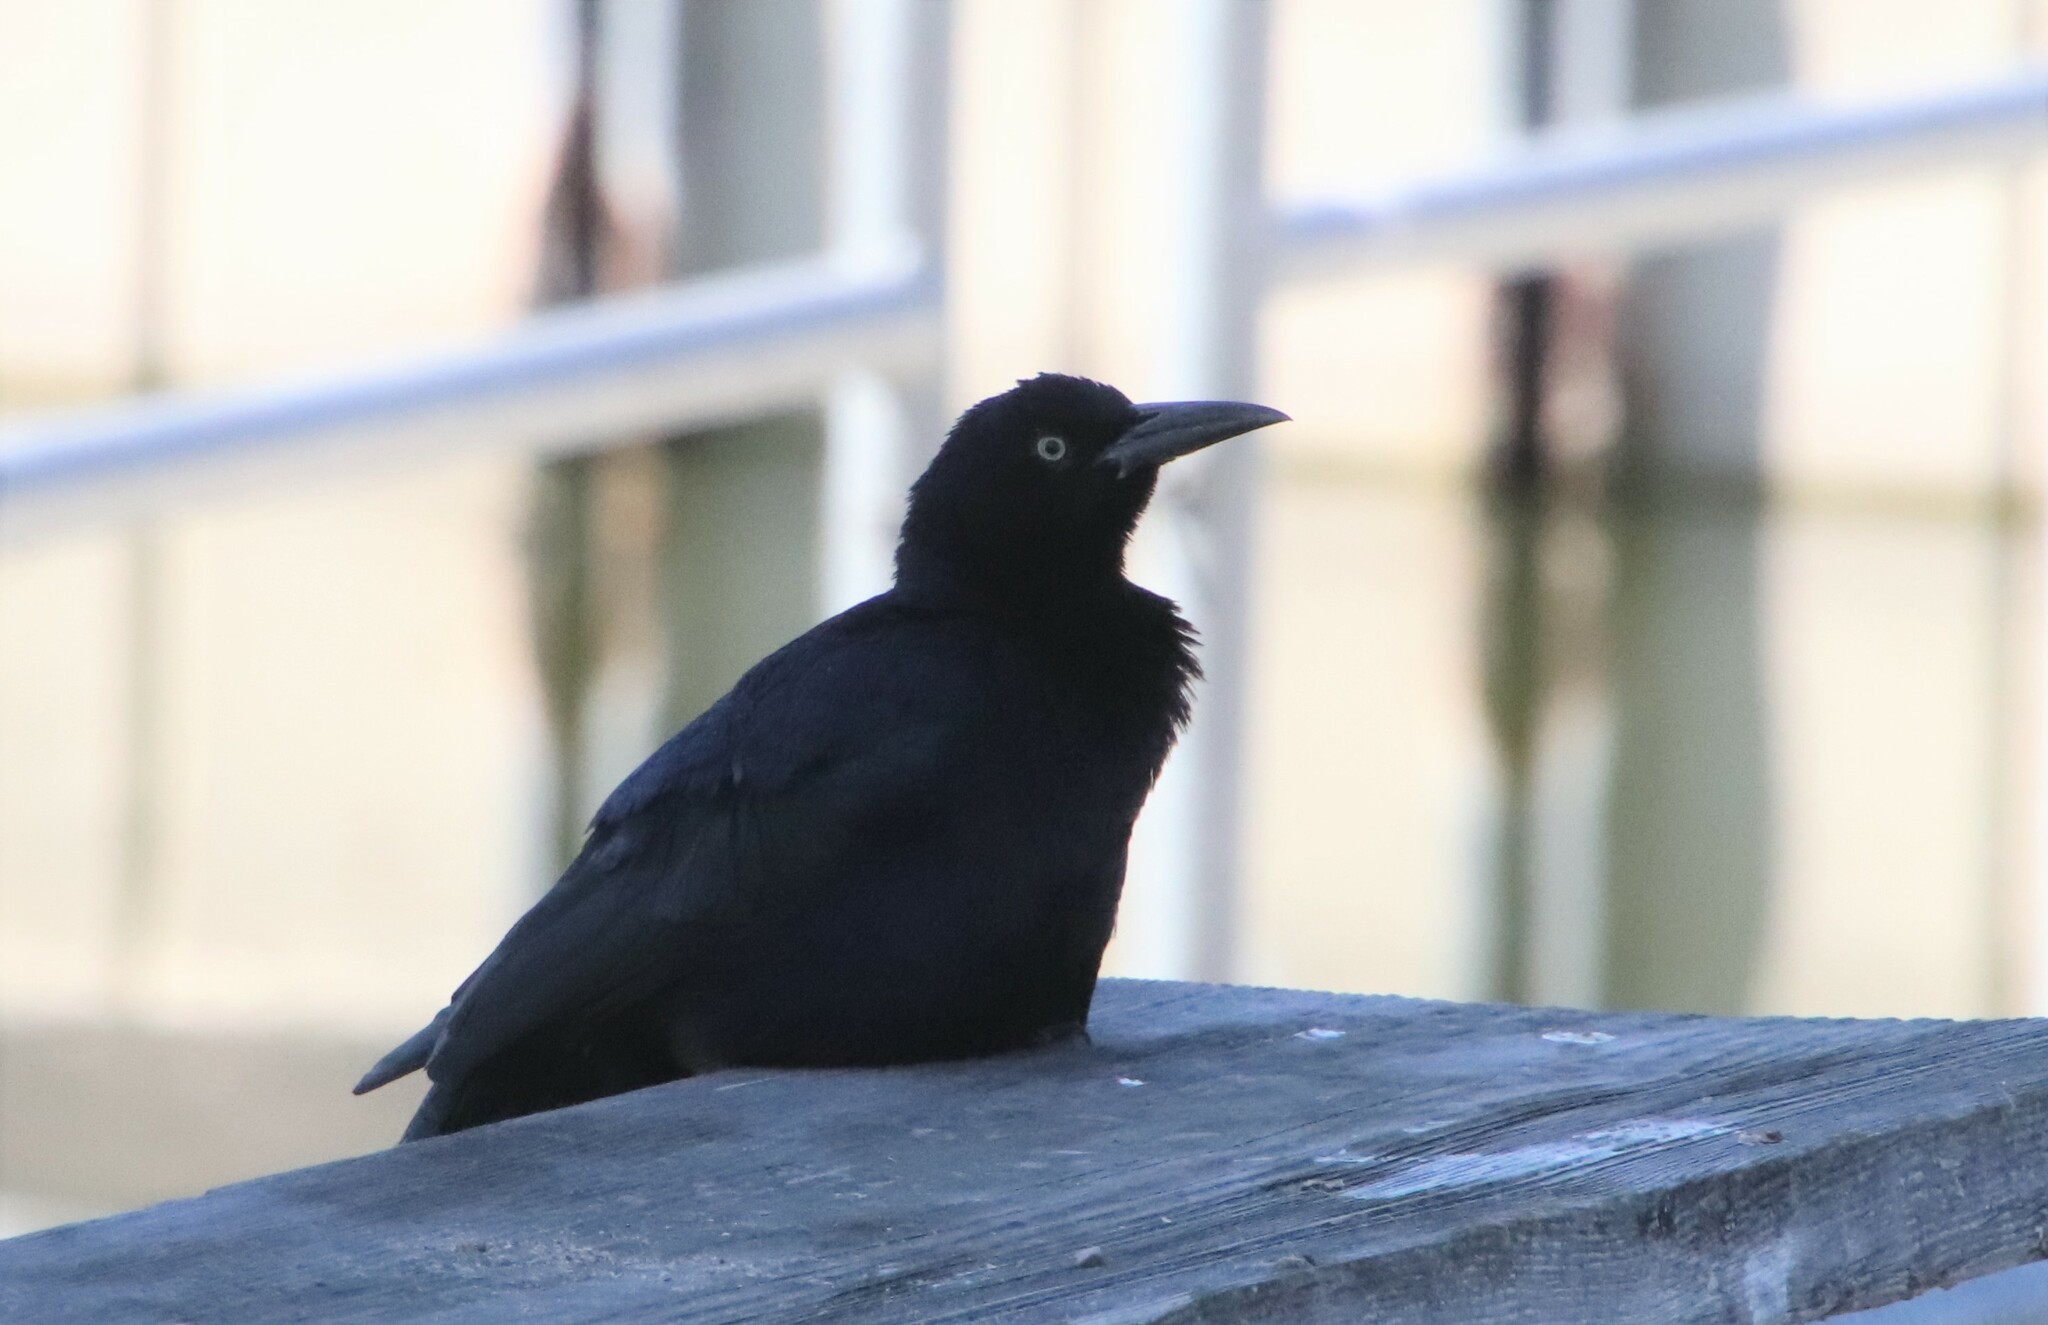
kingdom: Animalia
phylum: Chordata
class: Aves
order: Passeriformes
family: Icteridae
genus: Quiscalus
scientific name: Quiscalus mexicanus
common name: Great-tailed grackle
